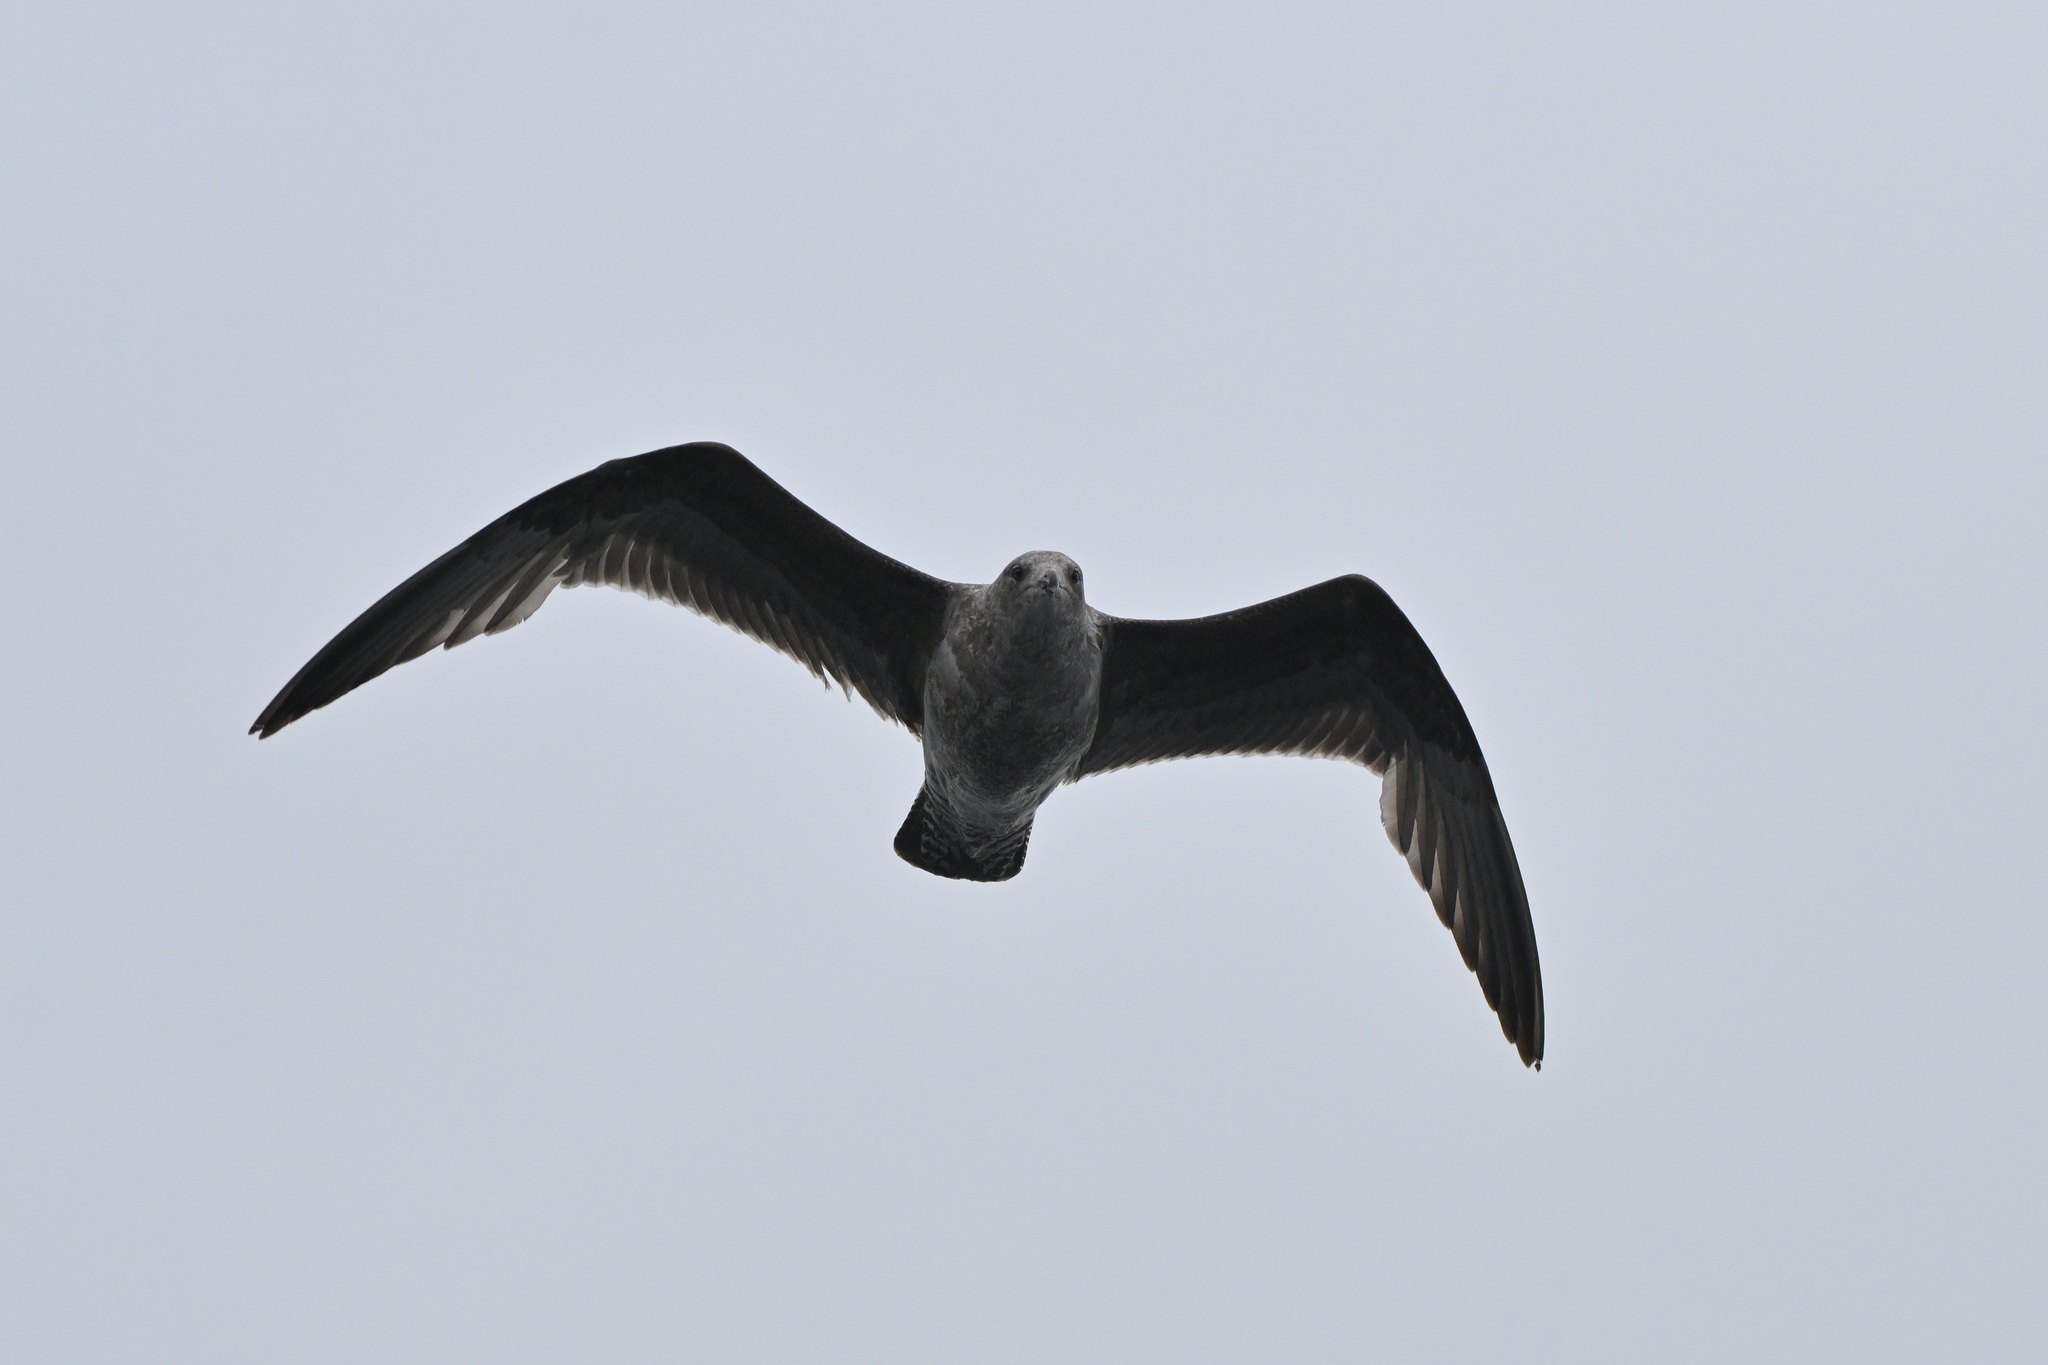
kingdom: Animalia
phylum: Chordata
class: Aves
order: Charadriiformes
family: Laridae
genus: Larus
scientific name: Larus dominicanus
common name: Kelp gull
